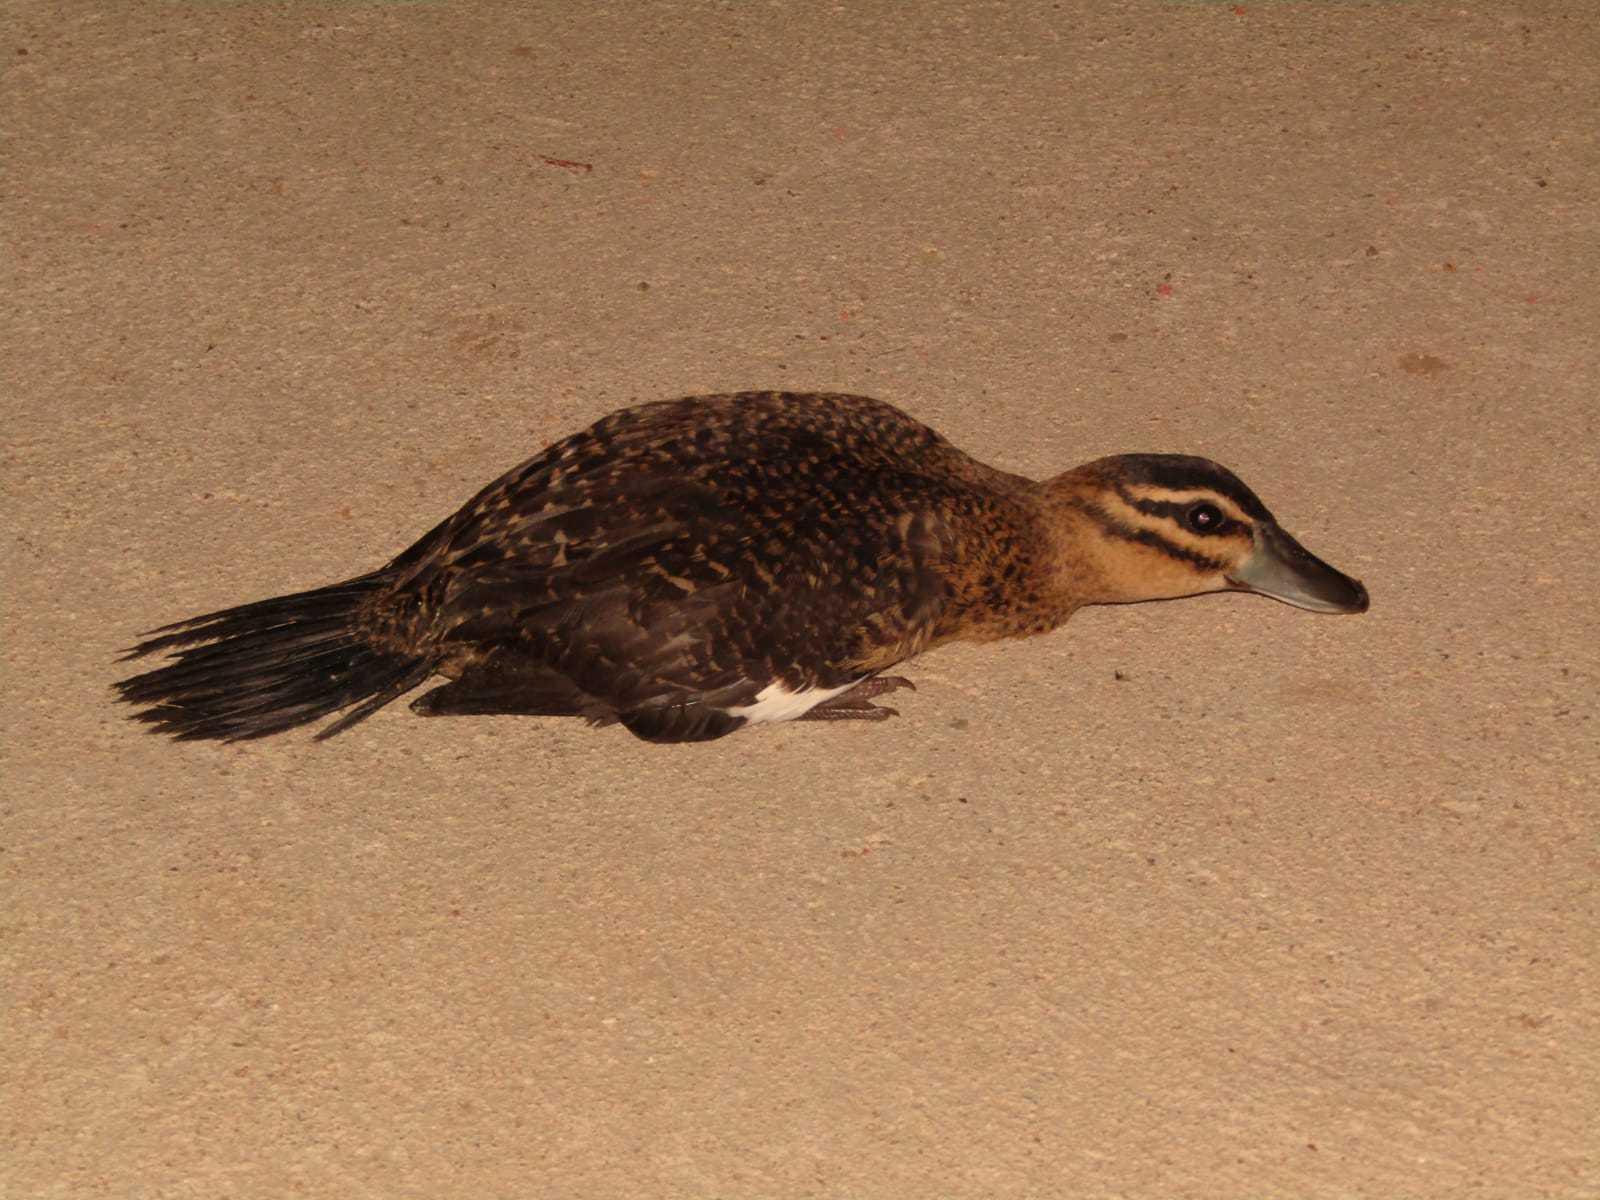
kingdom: Animalia
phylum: Chordata
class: Aves
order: Anseriformes
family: Anatidae
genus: Nomonyx
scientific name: Nomonyx dominicus
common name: Masked duck
